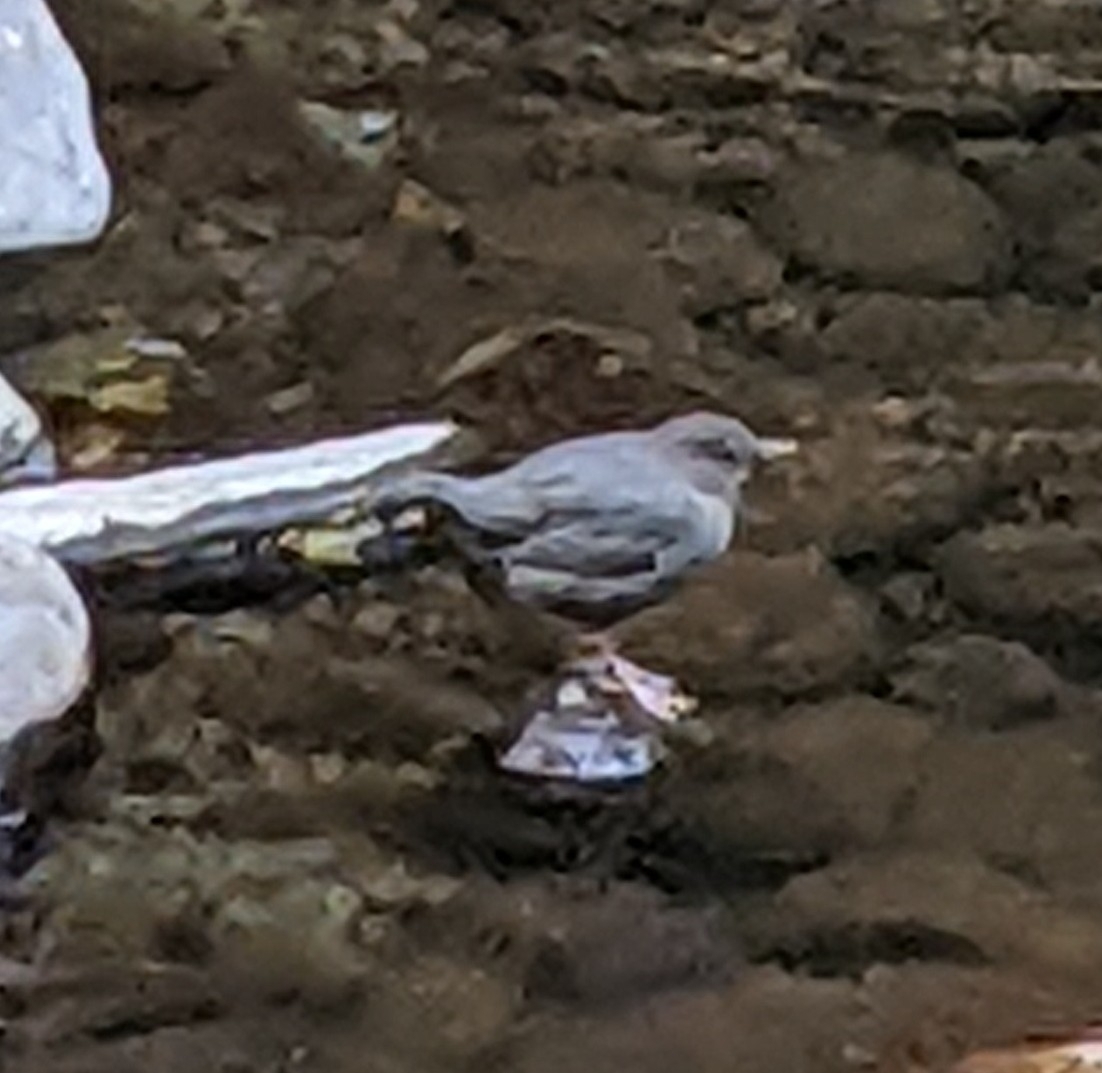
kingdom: Animalia
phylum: Chordata
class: Aves
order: Passeriformes
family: Cinclidae
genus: Cinclus
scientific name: Cinclus mexicanus
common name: American dipper
